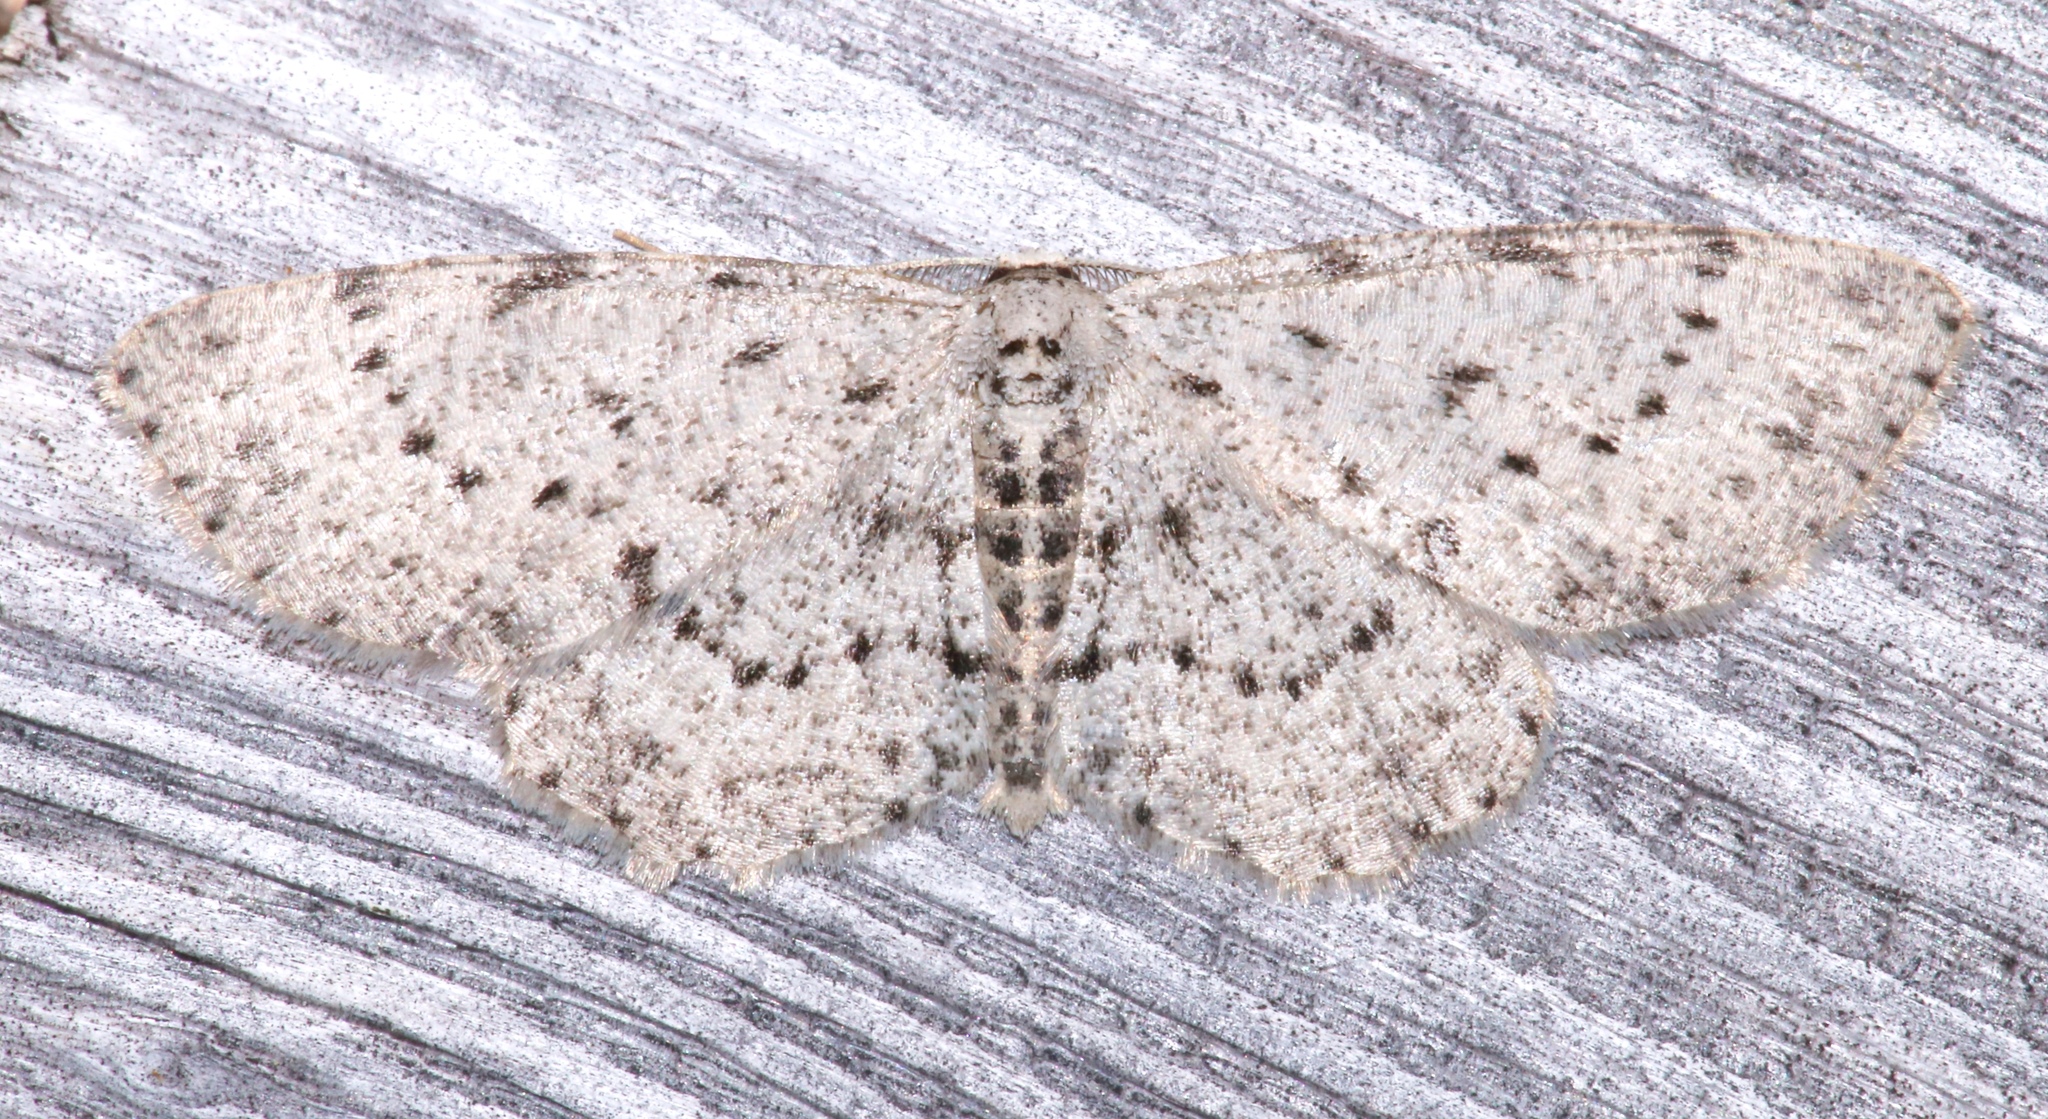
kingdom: Animalia
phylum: Arthropoda
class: Insecta
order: Lepidoptera
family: Geometridae
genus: Glena
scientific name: Glena cribrataria
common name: Dotted gray
